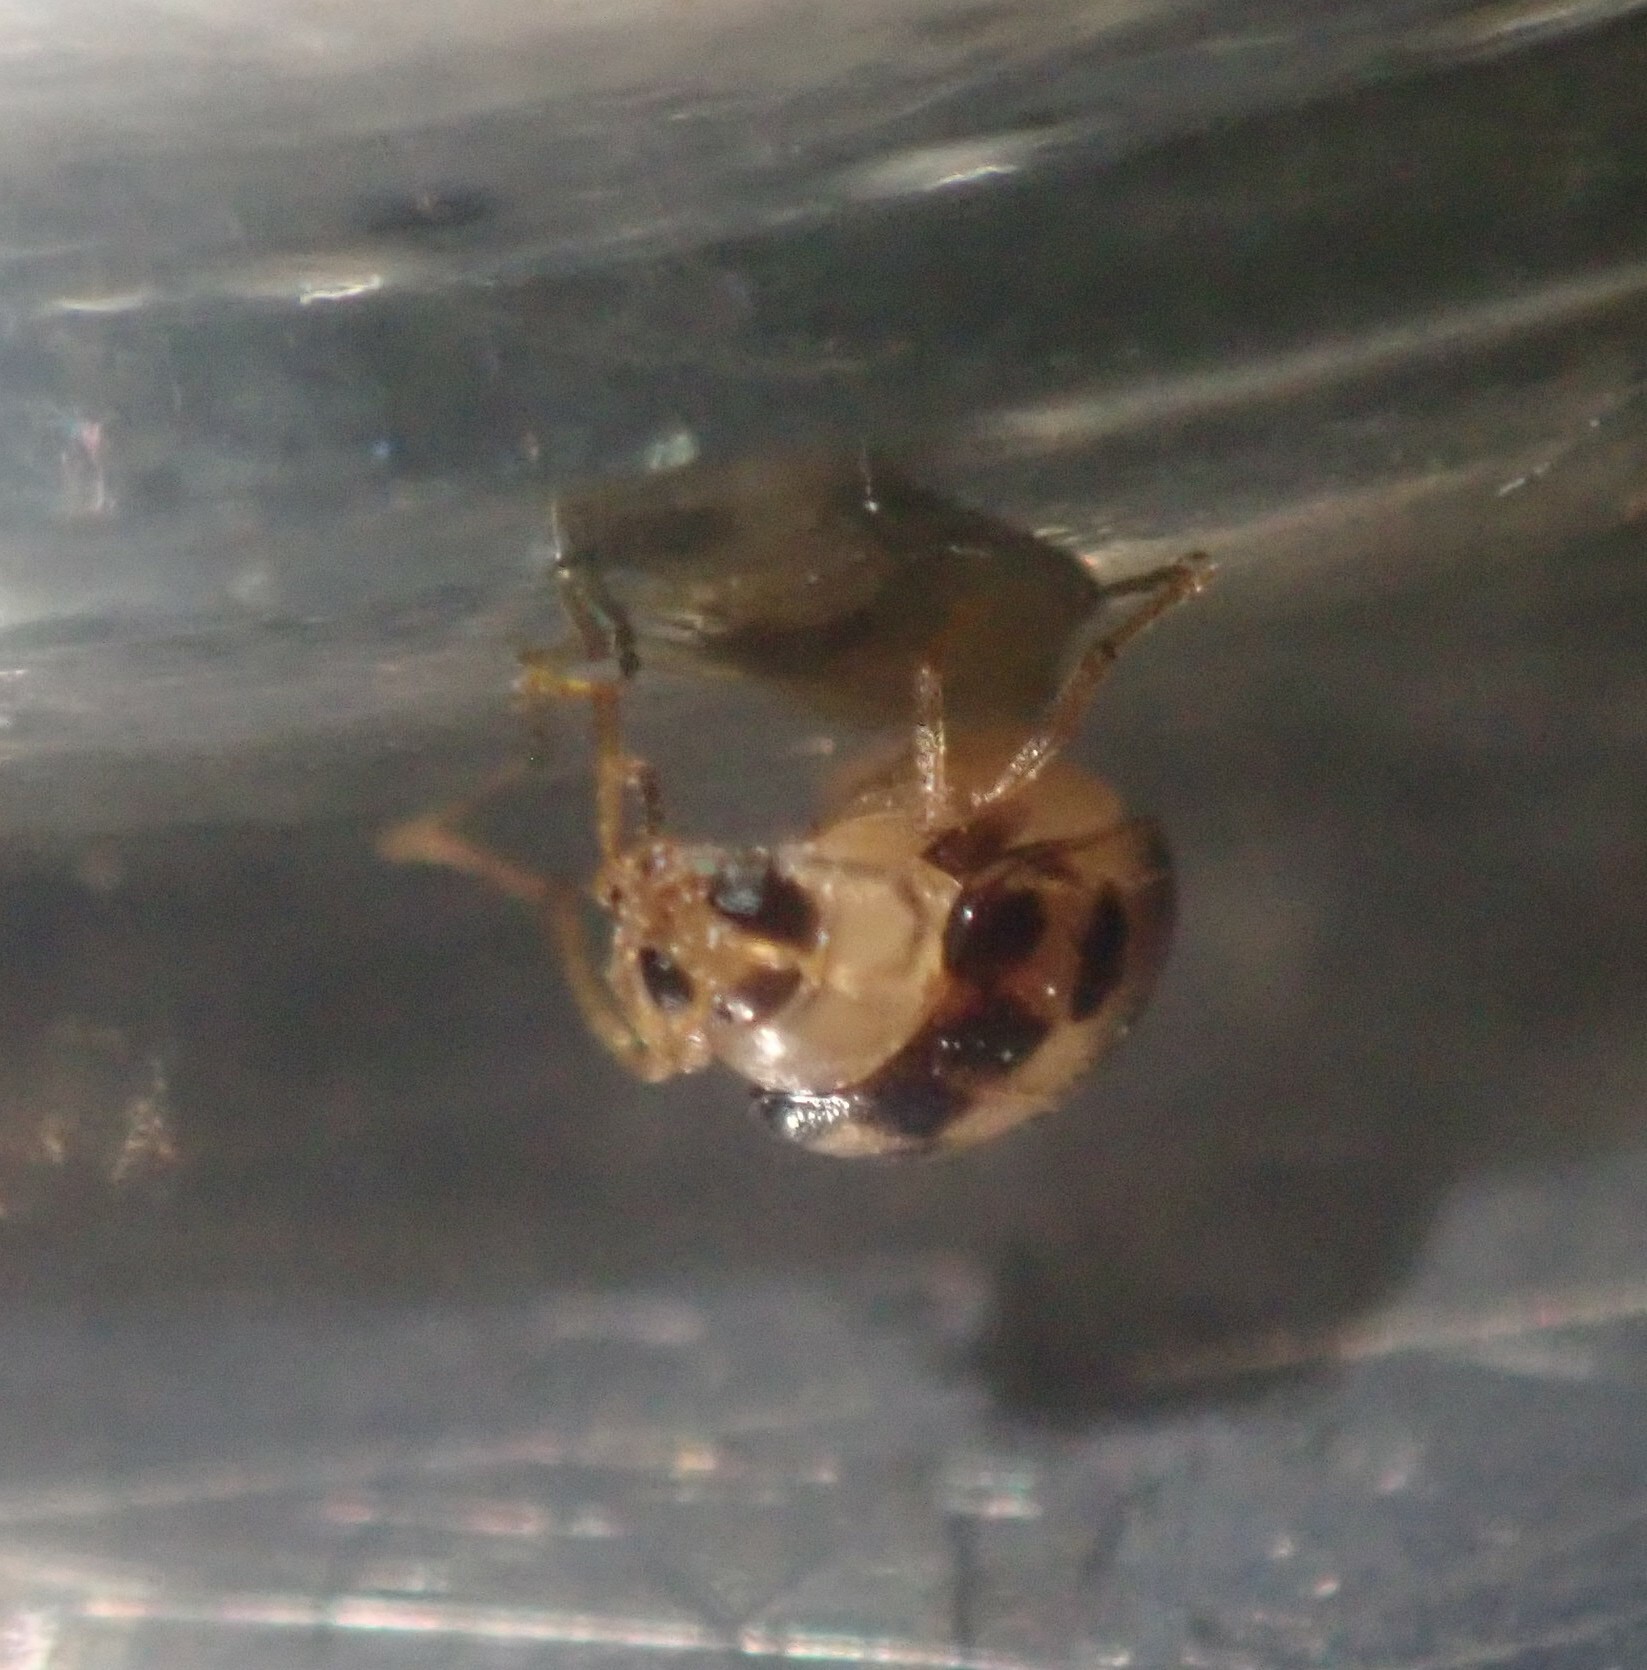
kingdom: Animalia
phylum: Arthropoda
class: Insecta
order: Coleoptera
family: Chrysomelidae
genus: Afromaculepta
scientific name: Afromaculepta decemmaculata
